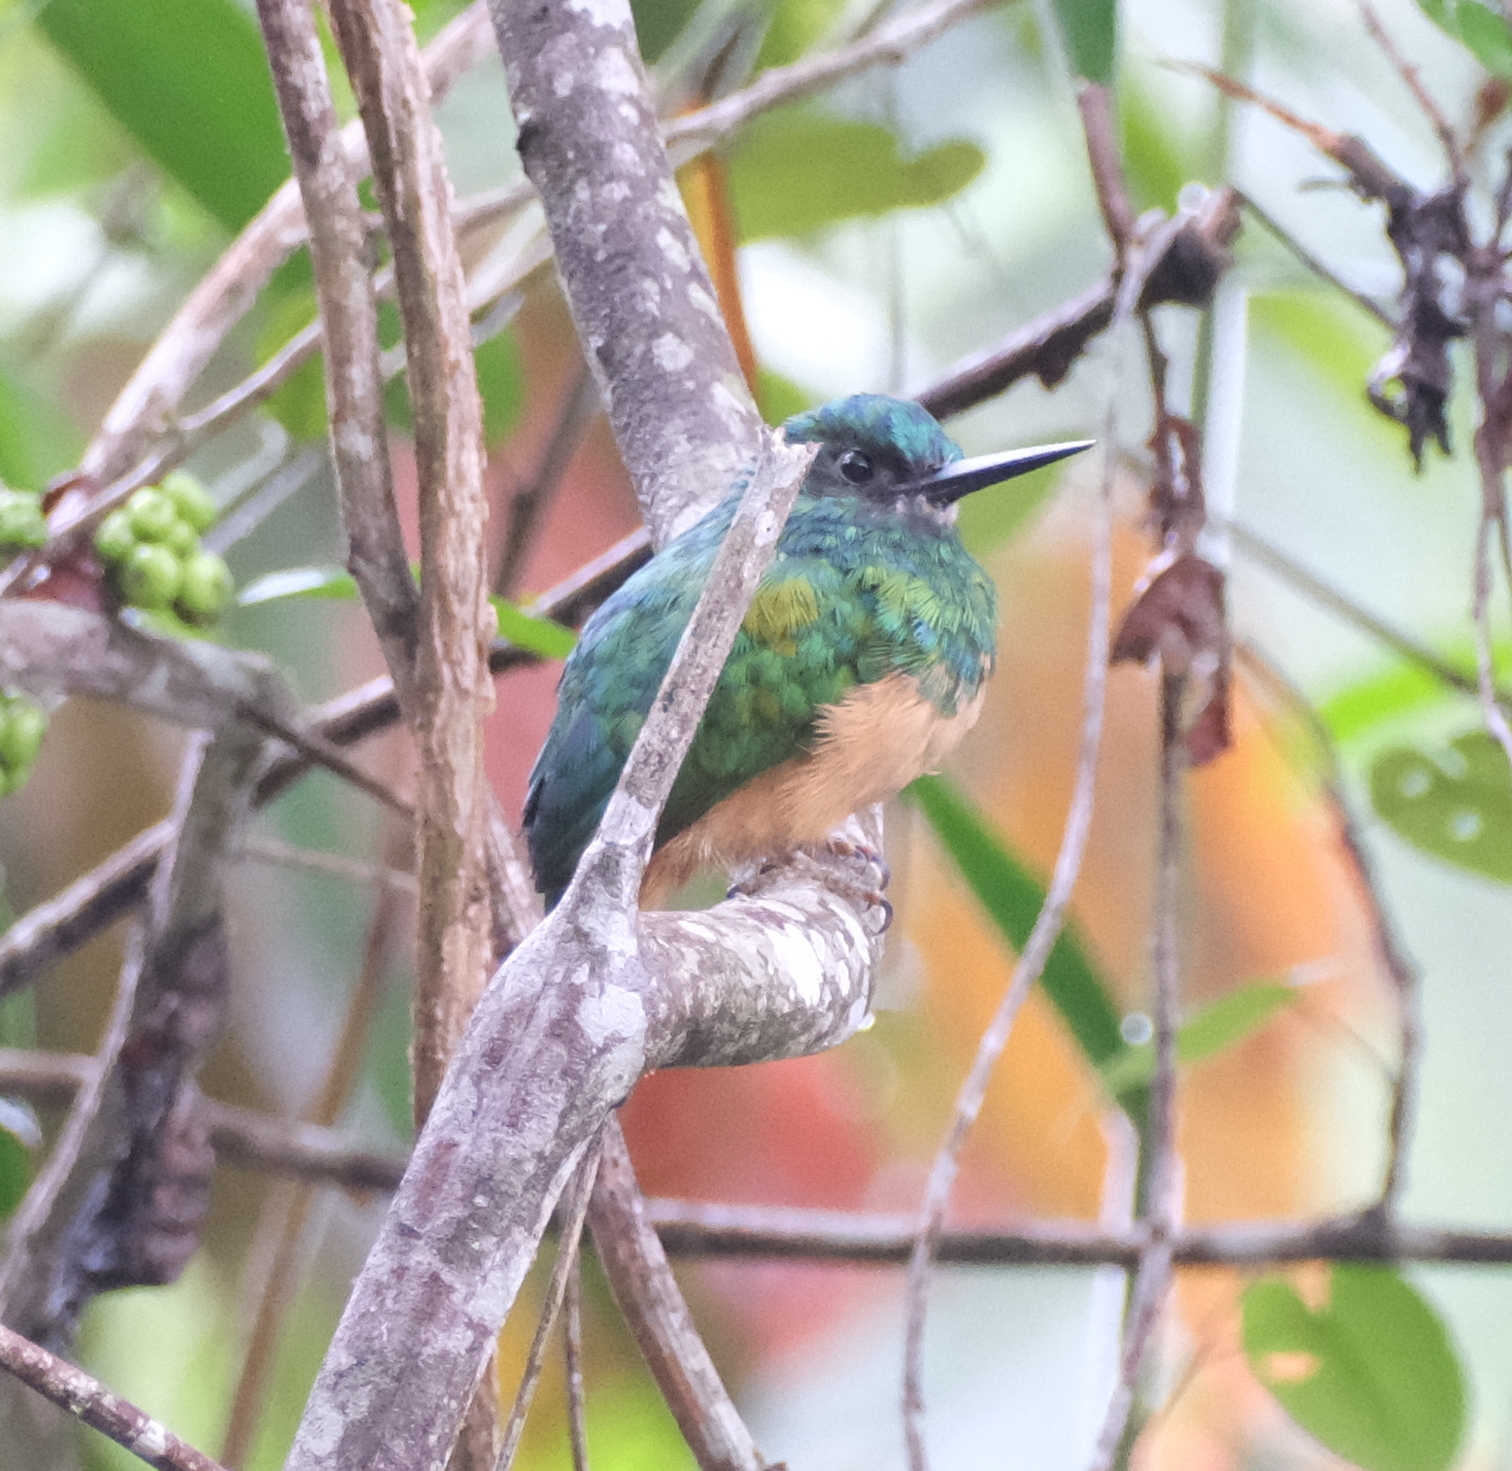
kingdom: Animalia
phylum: Chordata
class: Aves
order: Piciformes
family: Galbulidae
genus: Galbula
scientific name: Galbula cyanescens
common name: Bluish-fronted jacamar
